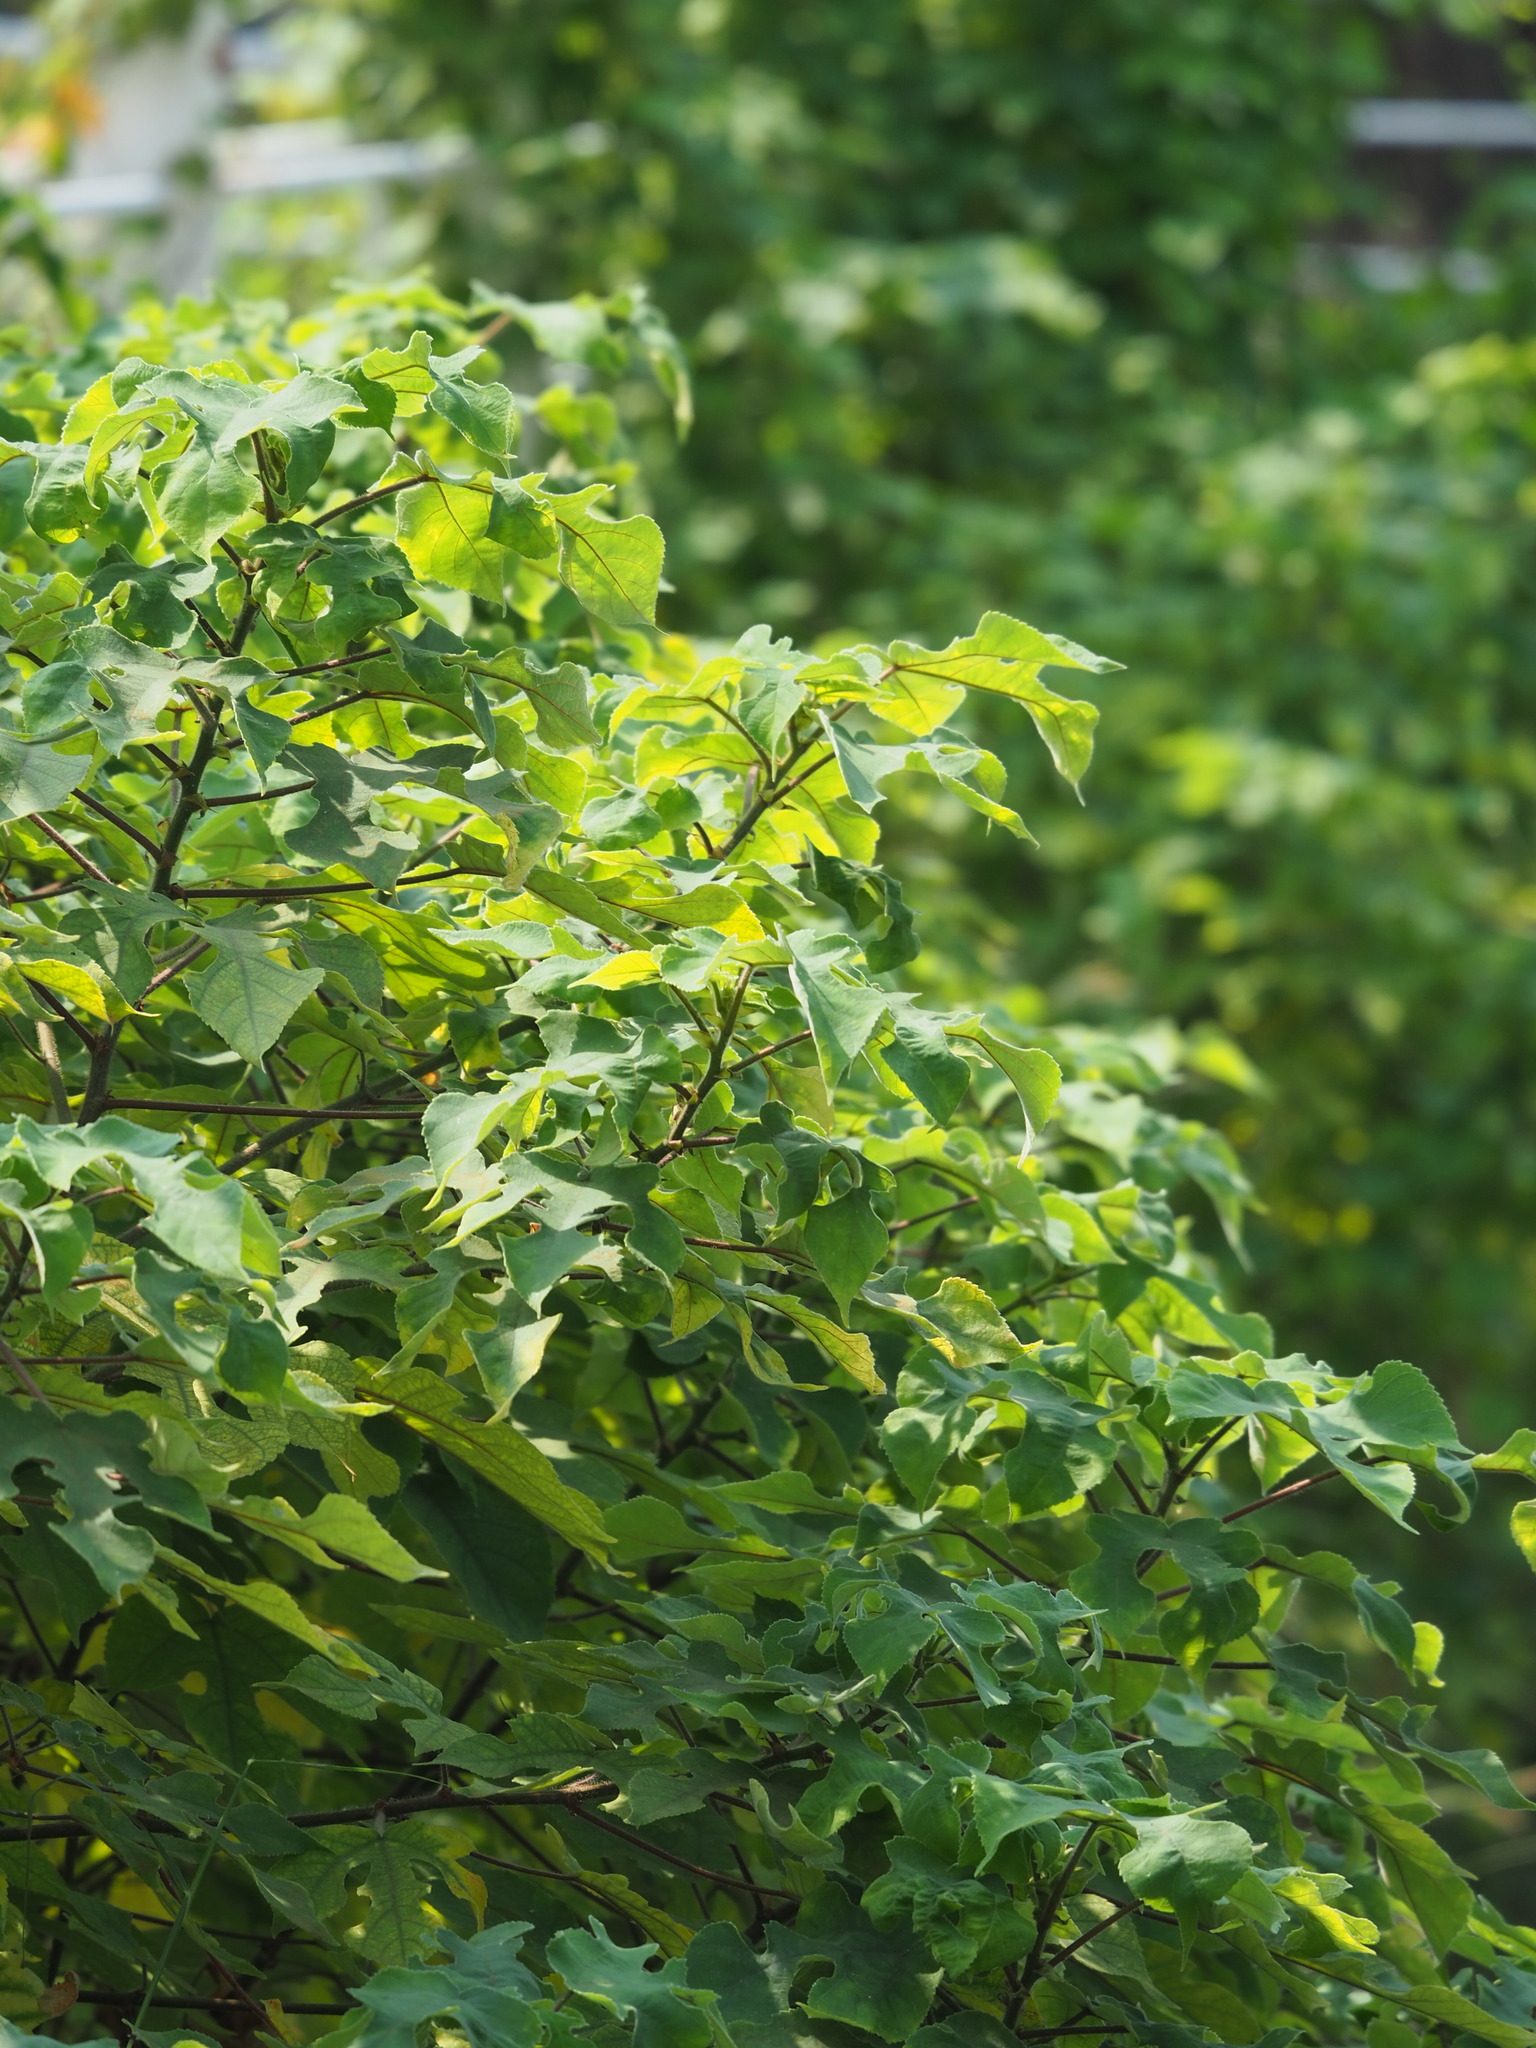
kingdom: Plantae
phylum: Tracheophyta
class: Magnoliopsida
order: Rosales
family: Moraceae
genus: Broussonetia
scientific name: Broussonetia papyrifera
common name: Paper mulberry
